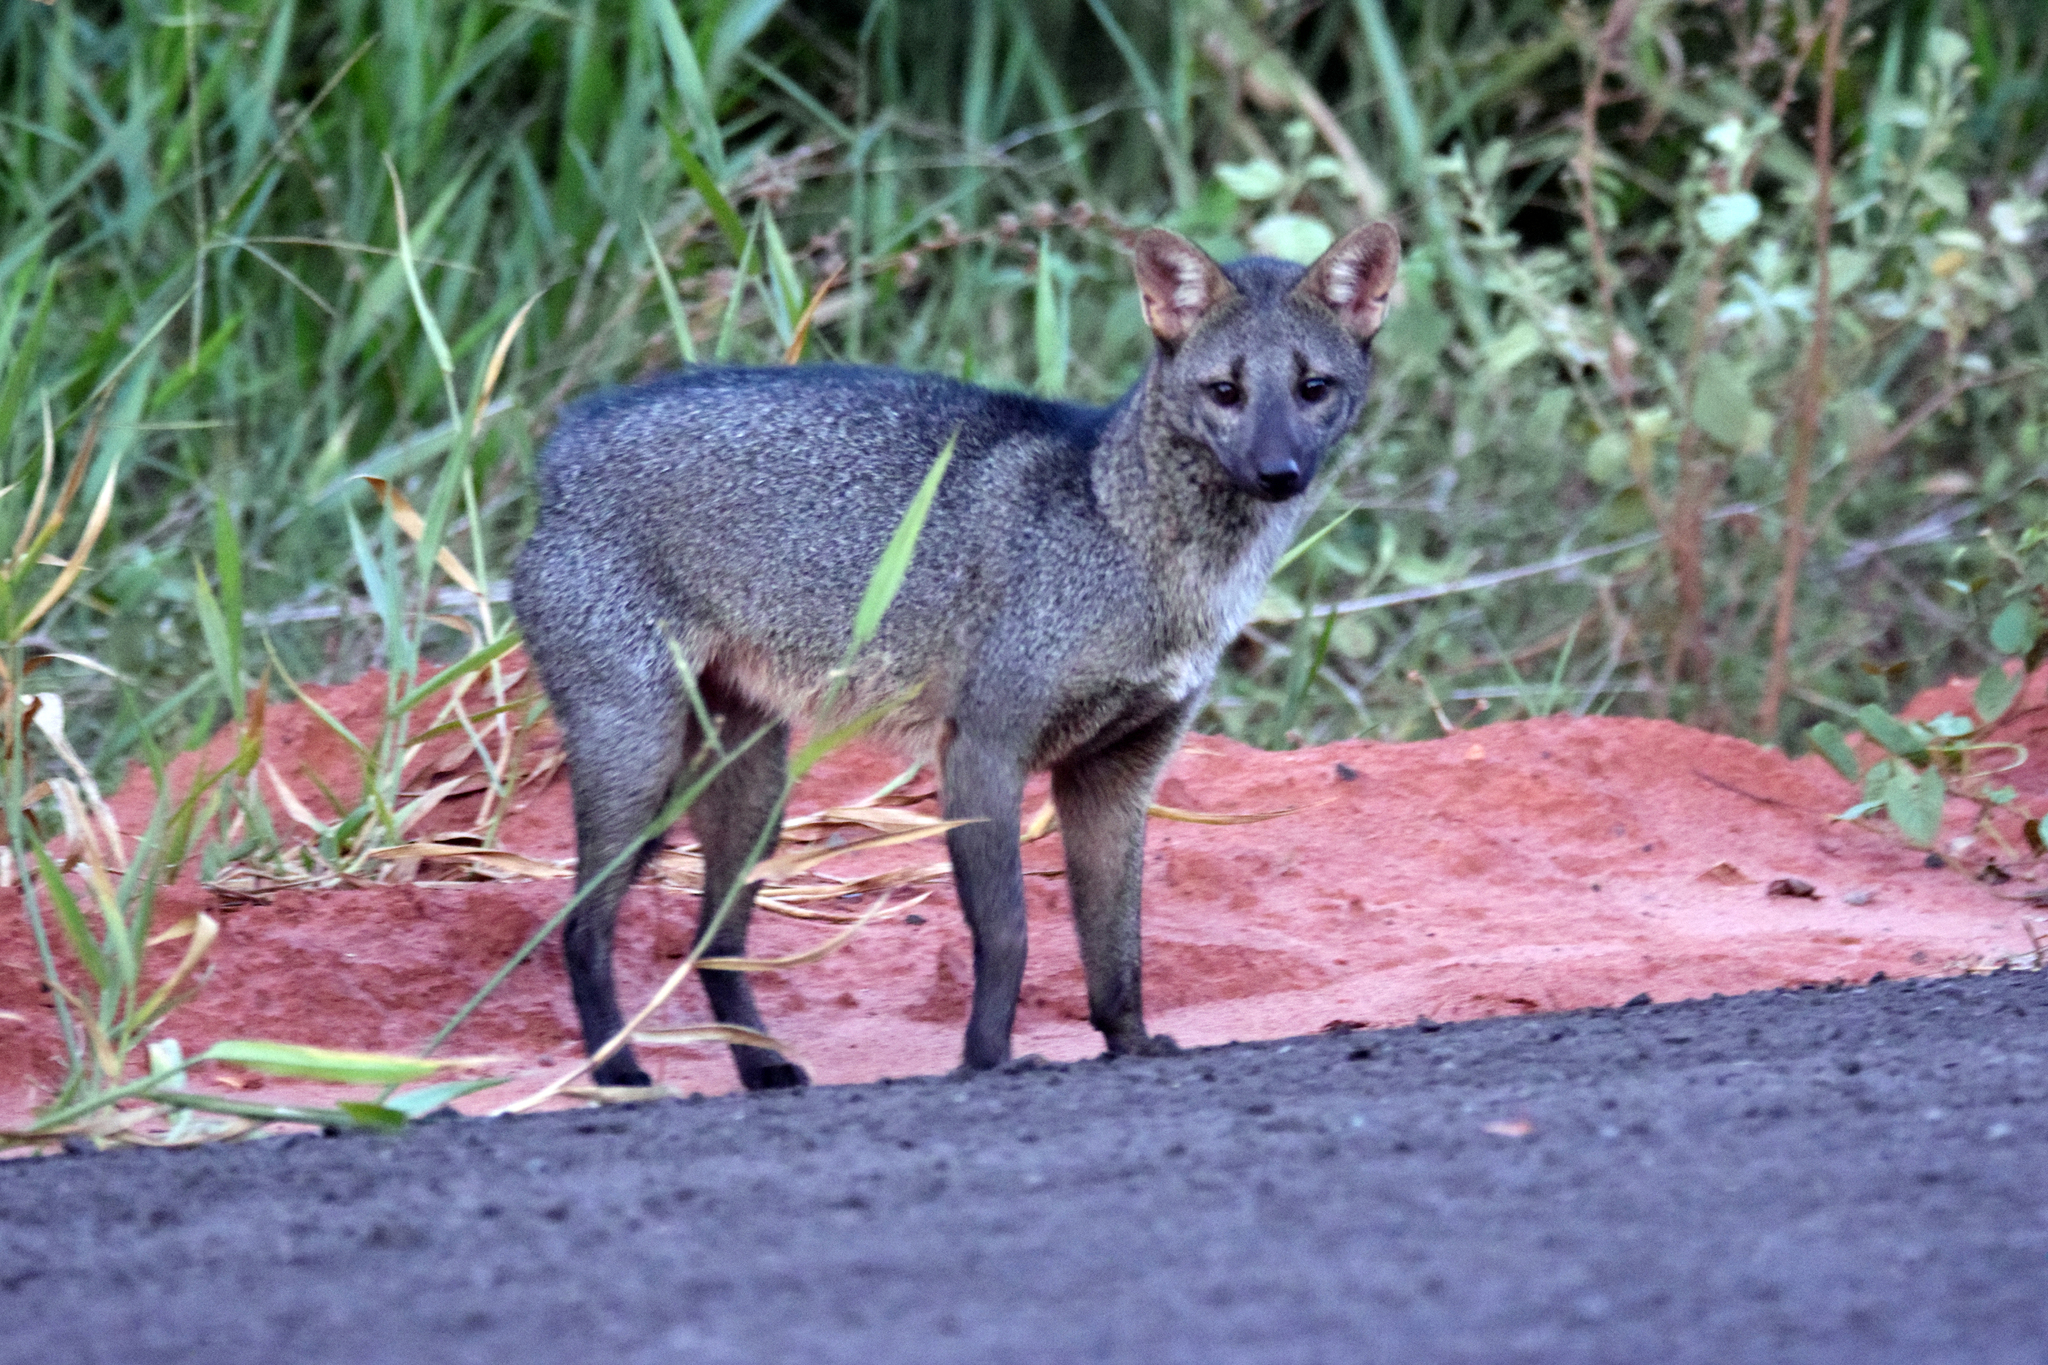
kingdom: Animalia
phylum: Chordata
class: Mammalia
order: Carnivora
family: Canidae
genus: Cerdocyon
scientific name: Cerdocyon thous
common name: Crab-eating fox
